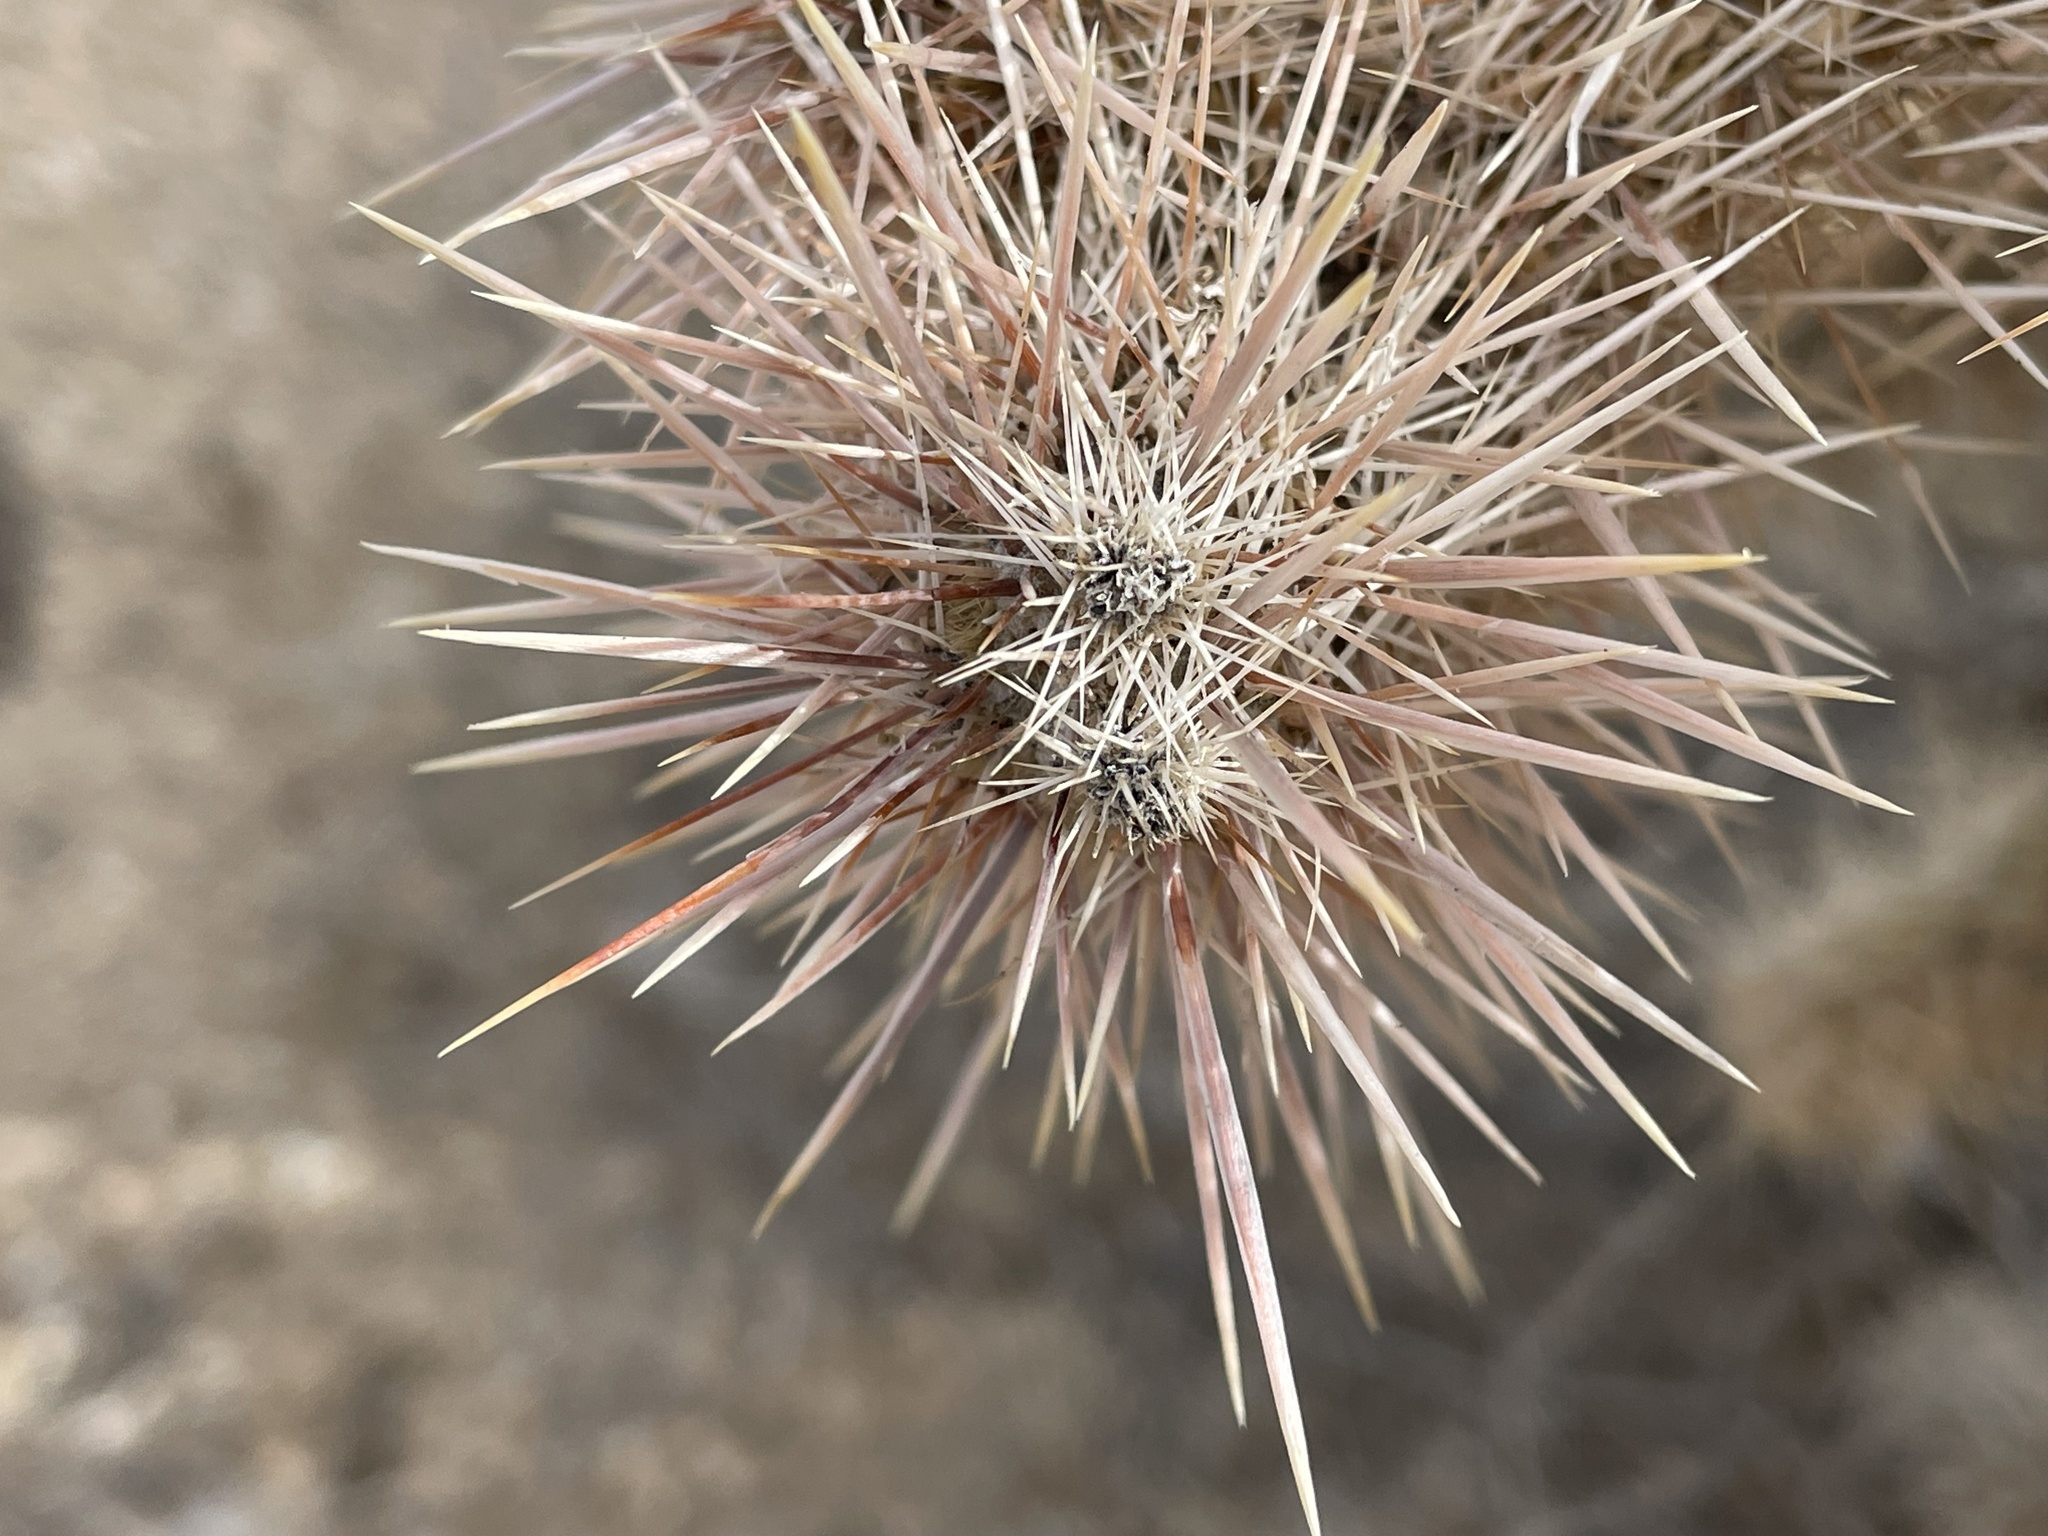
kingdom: Plantae
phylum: Tracheophyta
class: Magnoliopsida
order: Caryophyllales
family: Cactaceae
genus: Cylindropuntia
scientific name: Cylindropuntia echinocarpa
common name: Ground cholla
